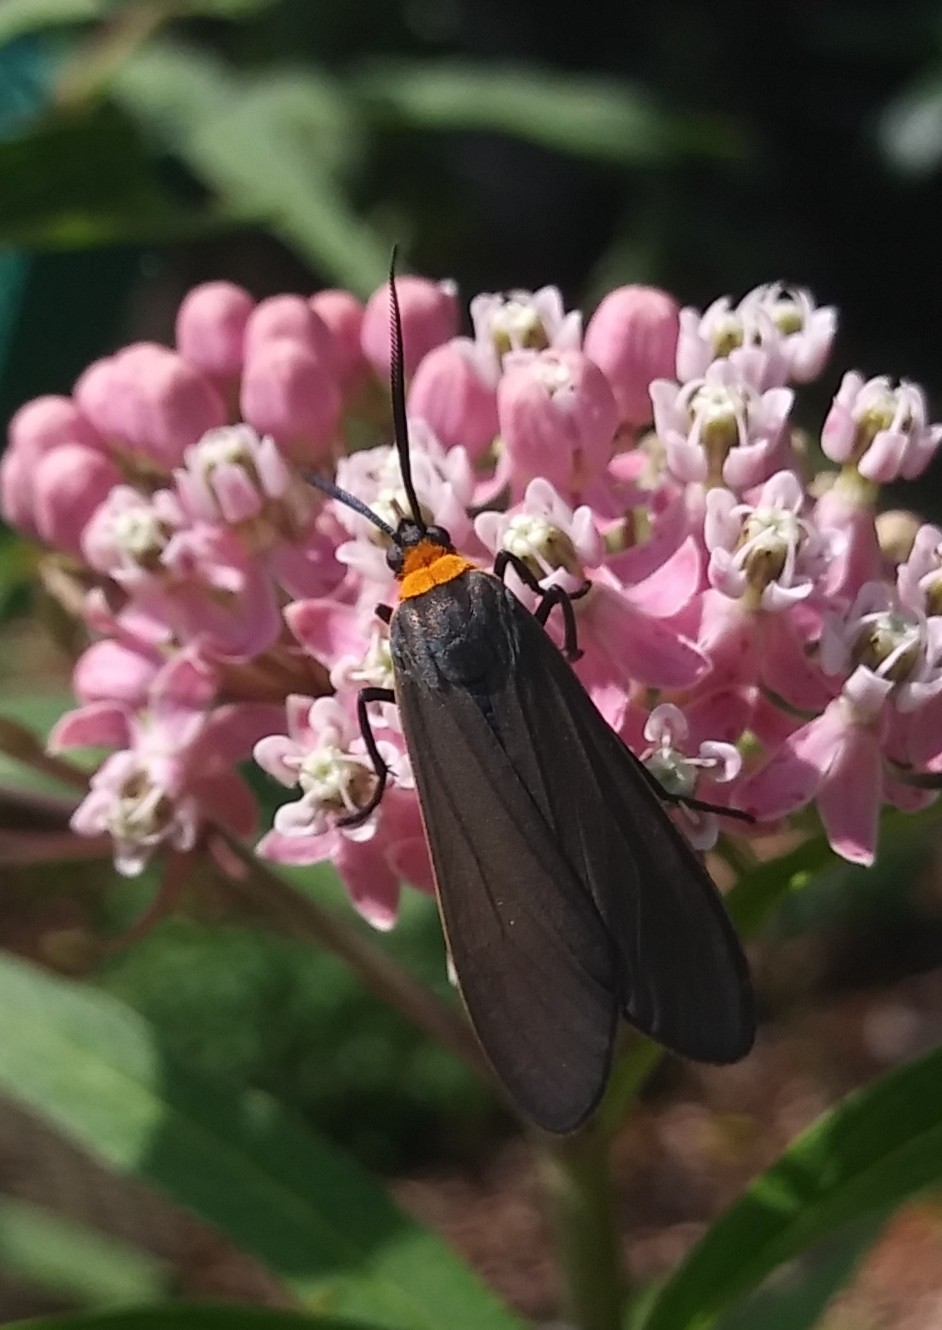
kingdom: Animalia
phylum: Arthropoda
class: Insecta
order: Lepidoptera
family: Erebidae
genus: Cisseps
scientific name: Cisseps fulvicollis
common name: Yellow-collared scape moth
